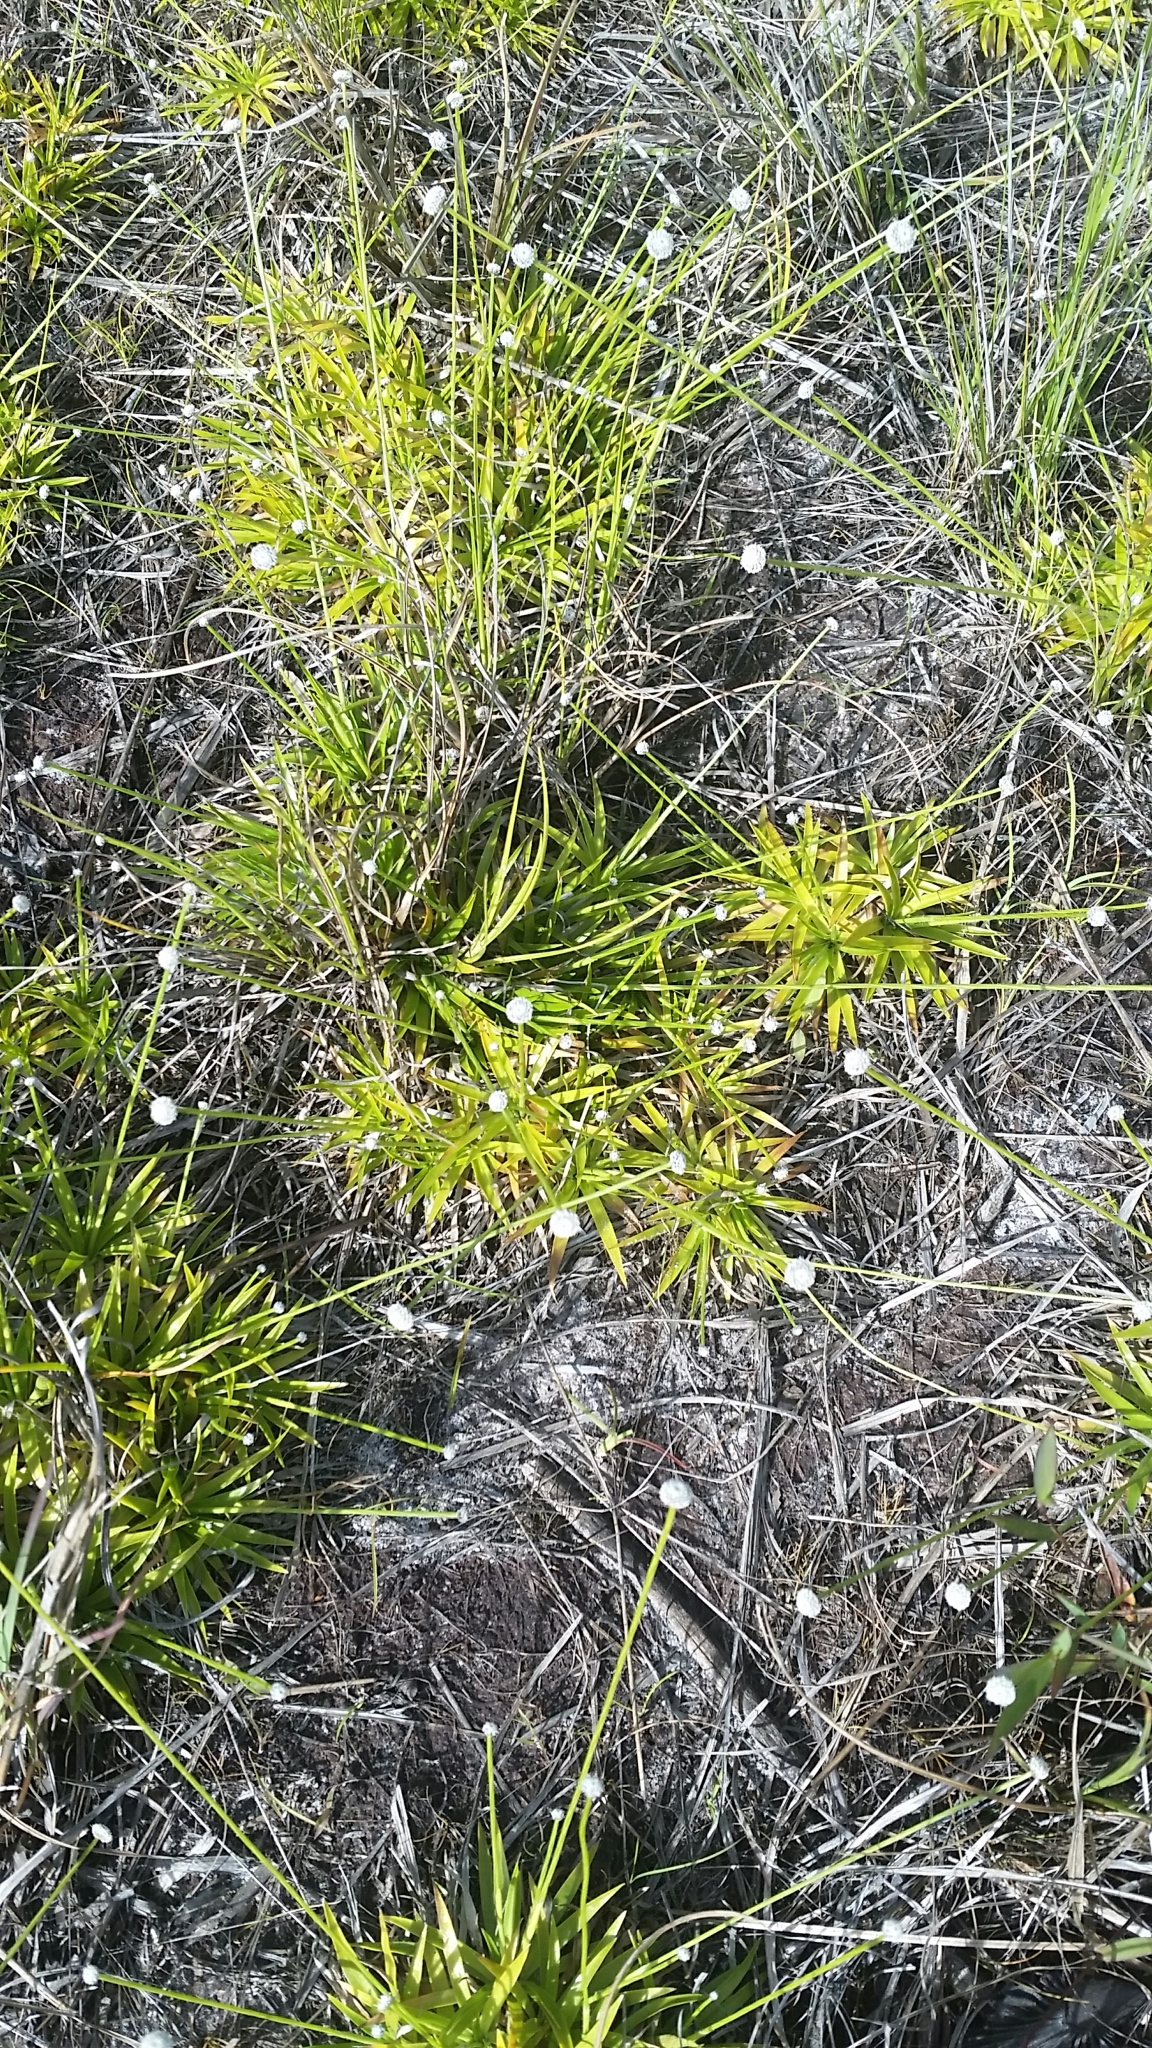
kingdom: Plantae
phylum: Tracheophyta
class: Liliopsida
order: Poales
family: Eriocaulaceae
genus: Paepalanthus
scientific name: Paepalanthus anceps
